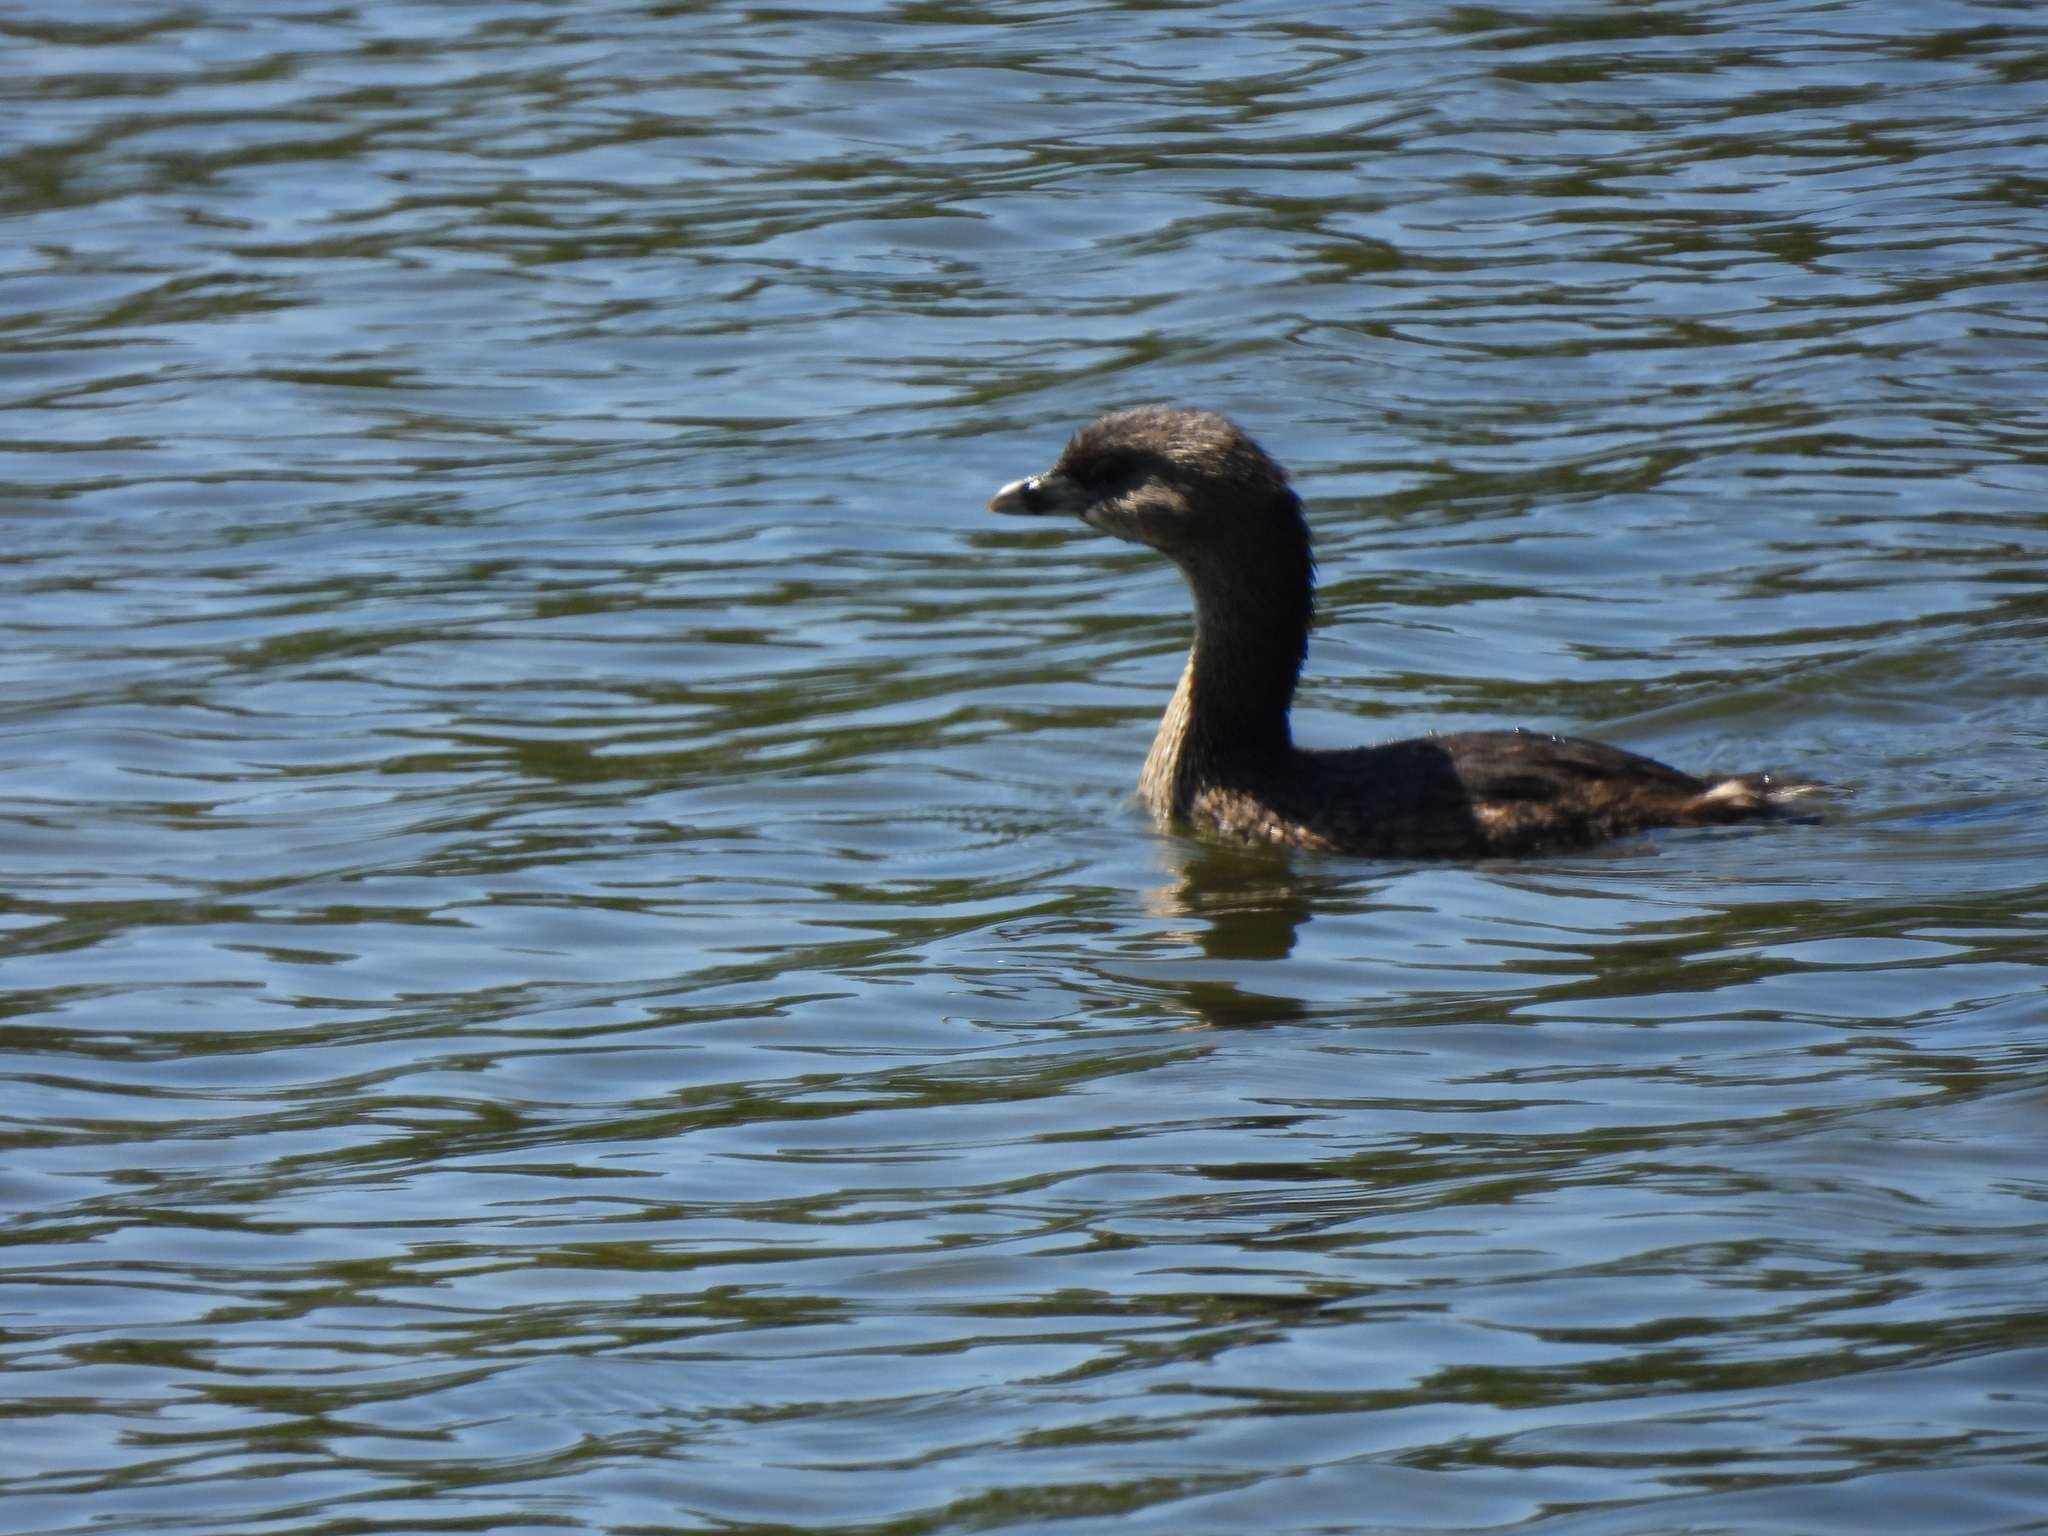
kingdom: Animalia
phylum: Chordata
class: Aves
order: Podicipediformes
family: Podicipedidae
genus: Podilymbus
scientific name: Podilymbus podiceps
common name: Pied-billed grebe
